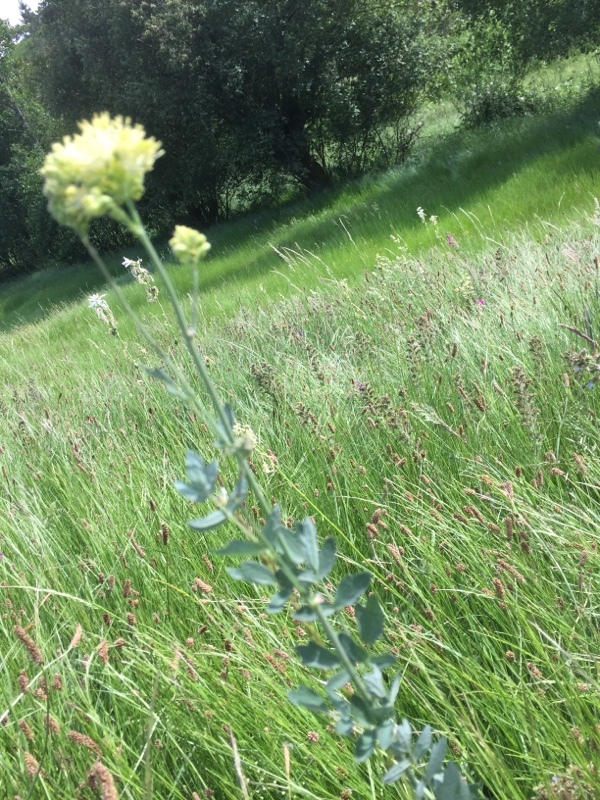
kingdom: Plantae
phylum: Tracheophyta
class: Magnoliopsida
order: Ranunculales
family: Ranunculaceae
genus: Thalictrum
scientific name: Thalictrum speciosissimum
